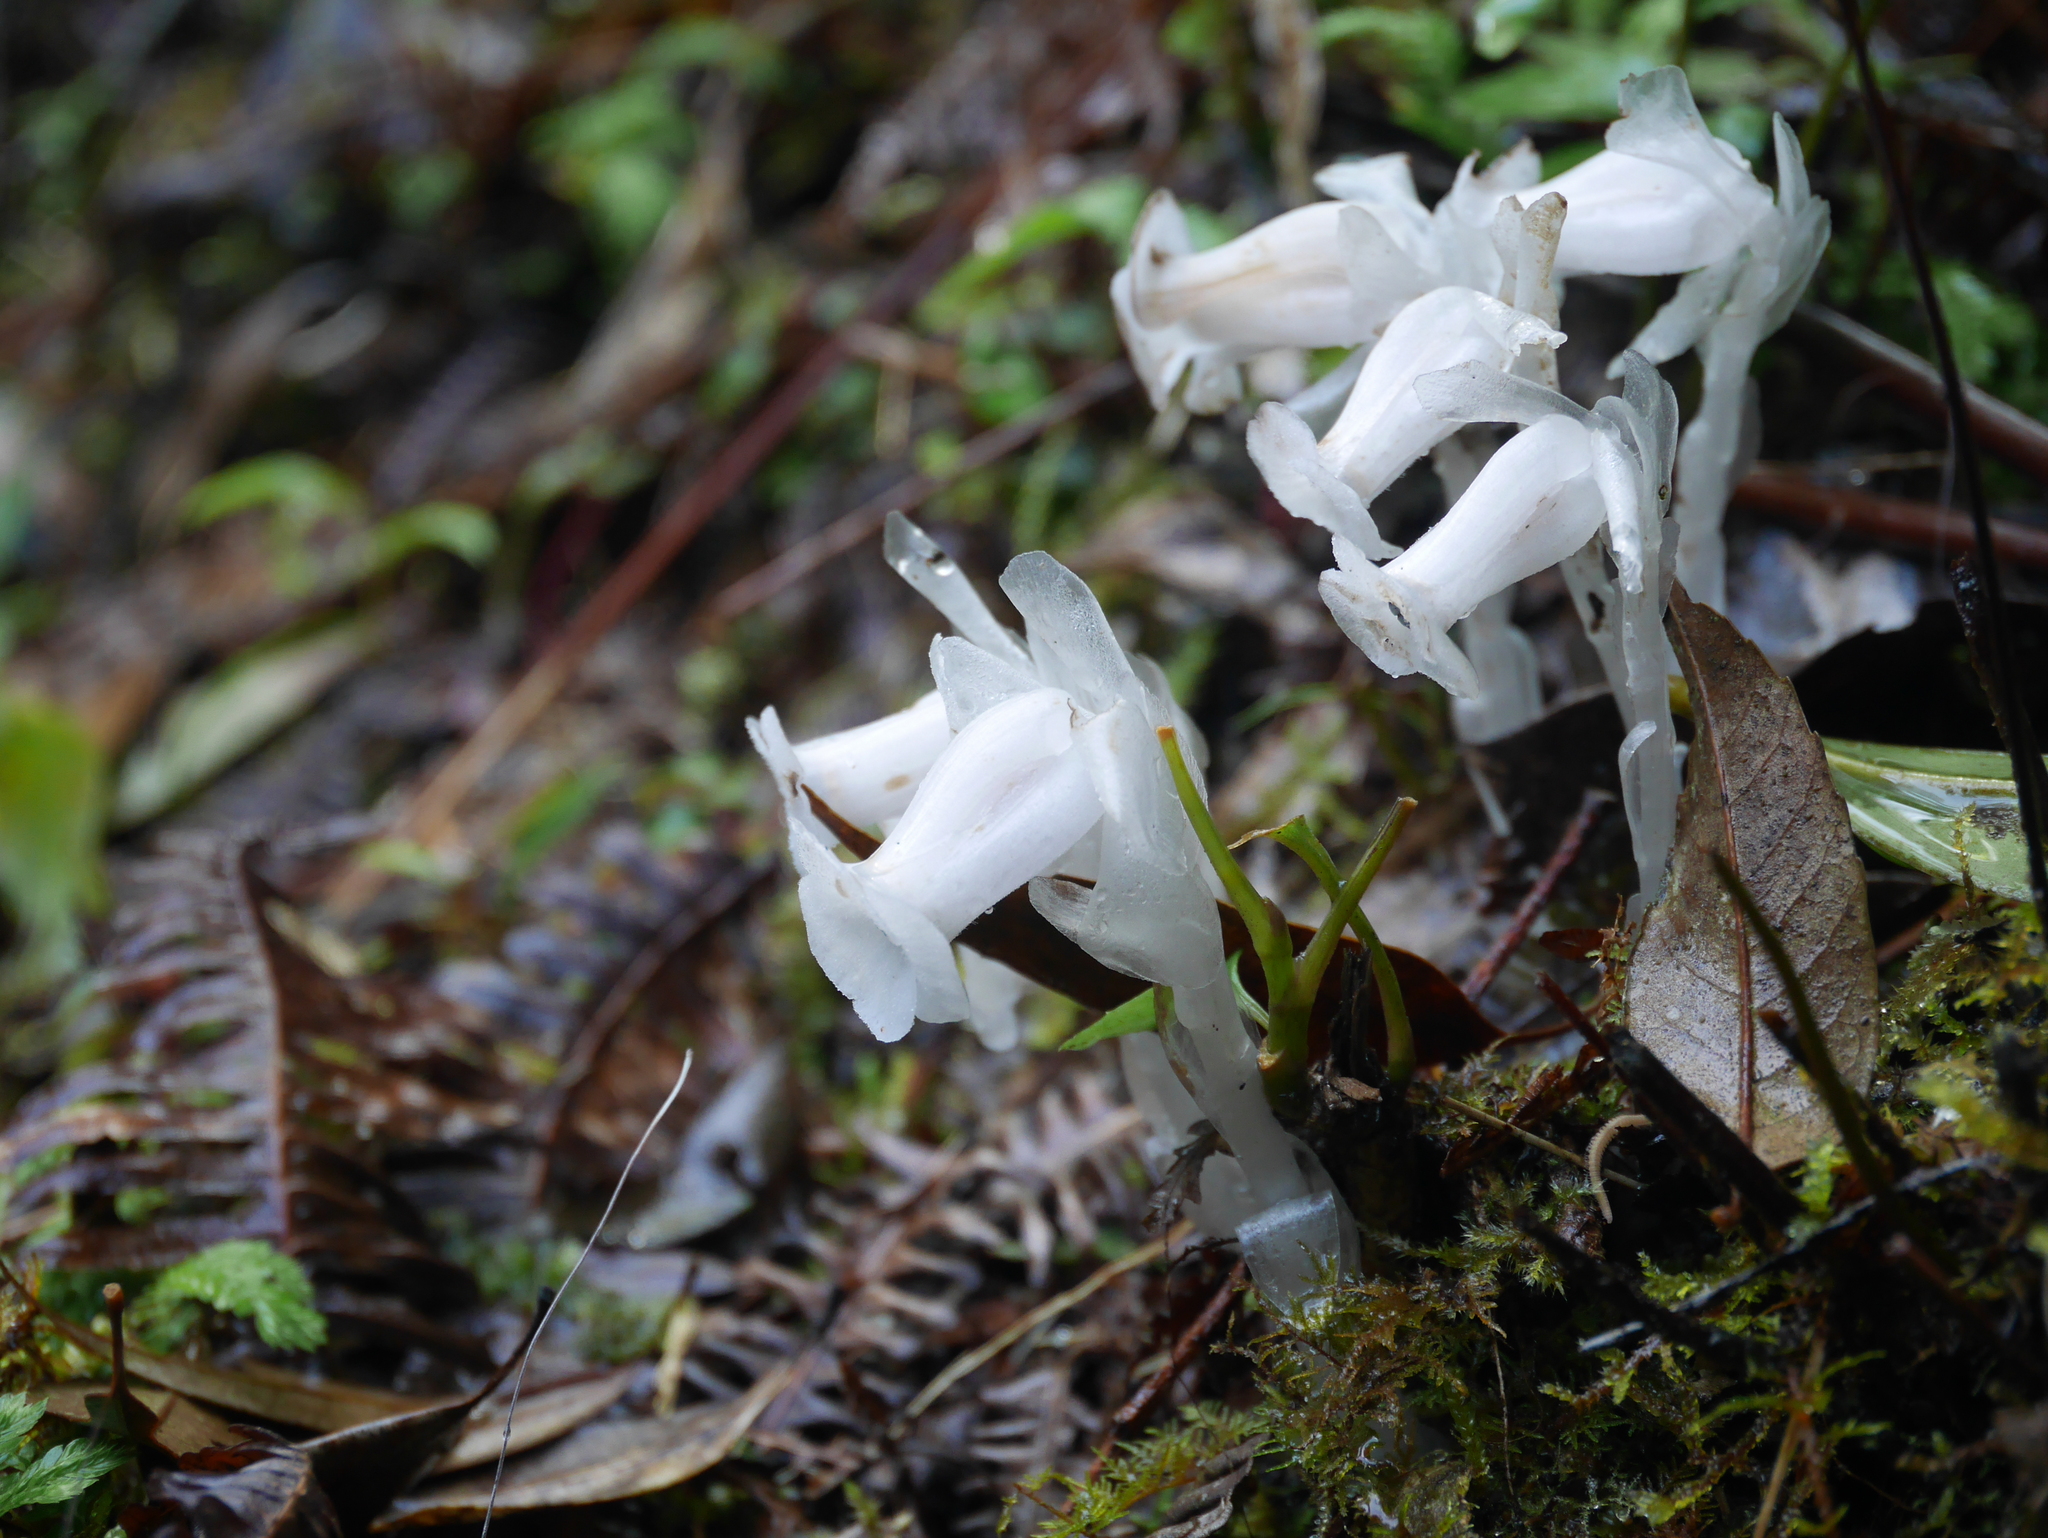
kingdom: Plantae
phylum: Tracheophyta
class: Magnoliopsida
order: Ericales
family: Ericaceae
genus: Monotropastrum
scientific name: Monotropastrum humile
